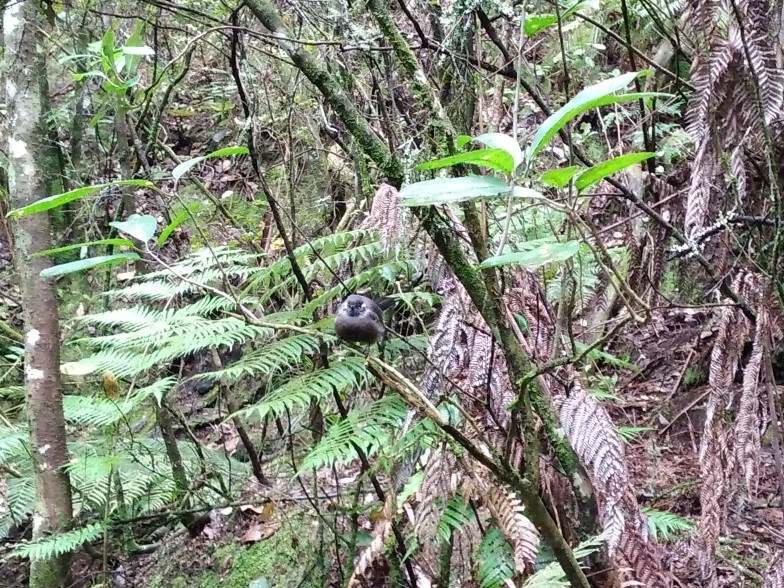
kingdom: Animalia
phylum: Chordata
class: Aves
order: Passeriformes
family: Rhipiduridae
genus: Rhipidura
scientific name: Rhipidura fuliginosa
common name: New zealand fantail
